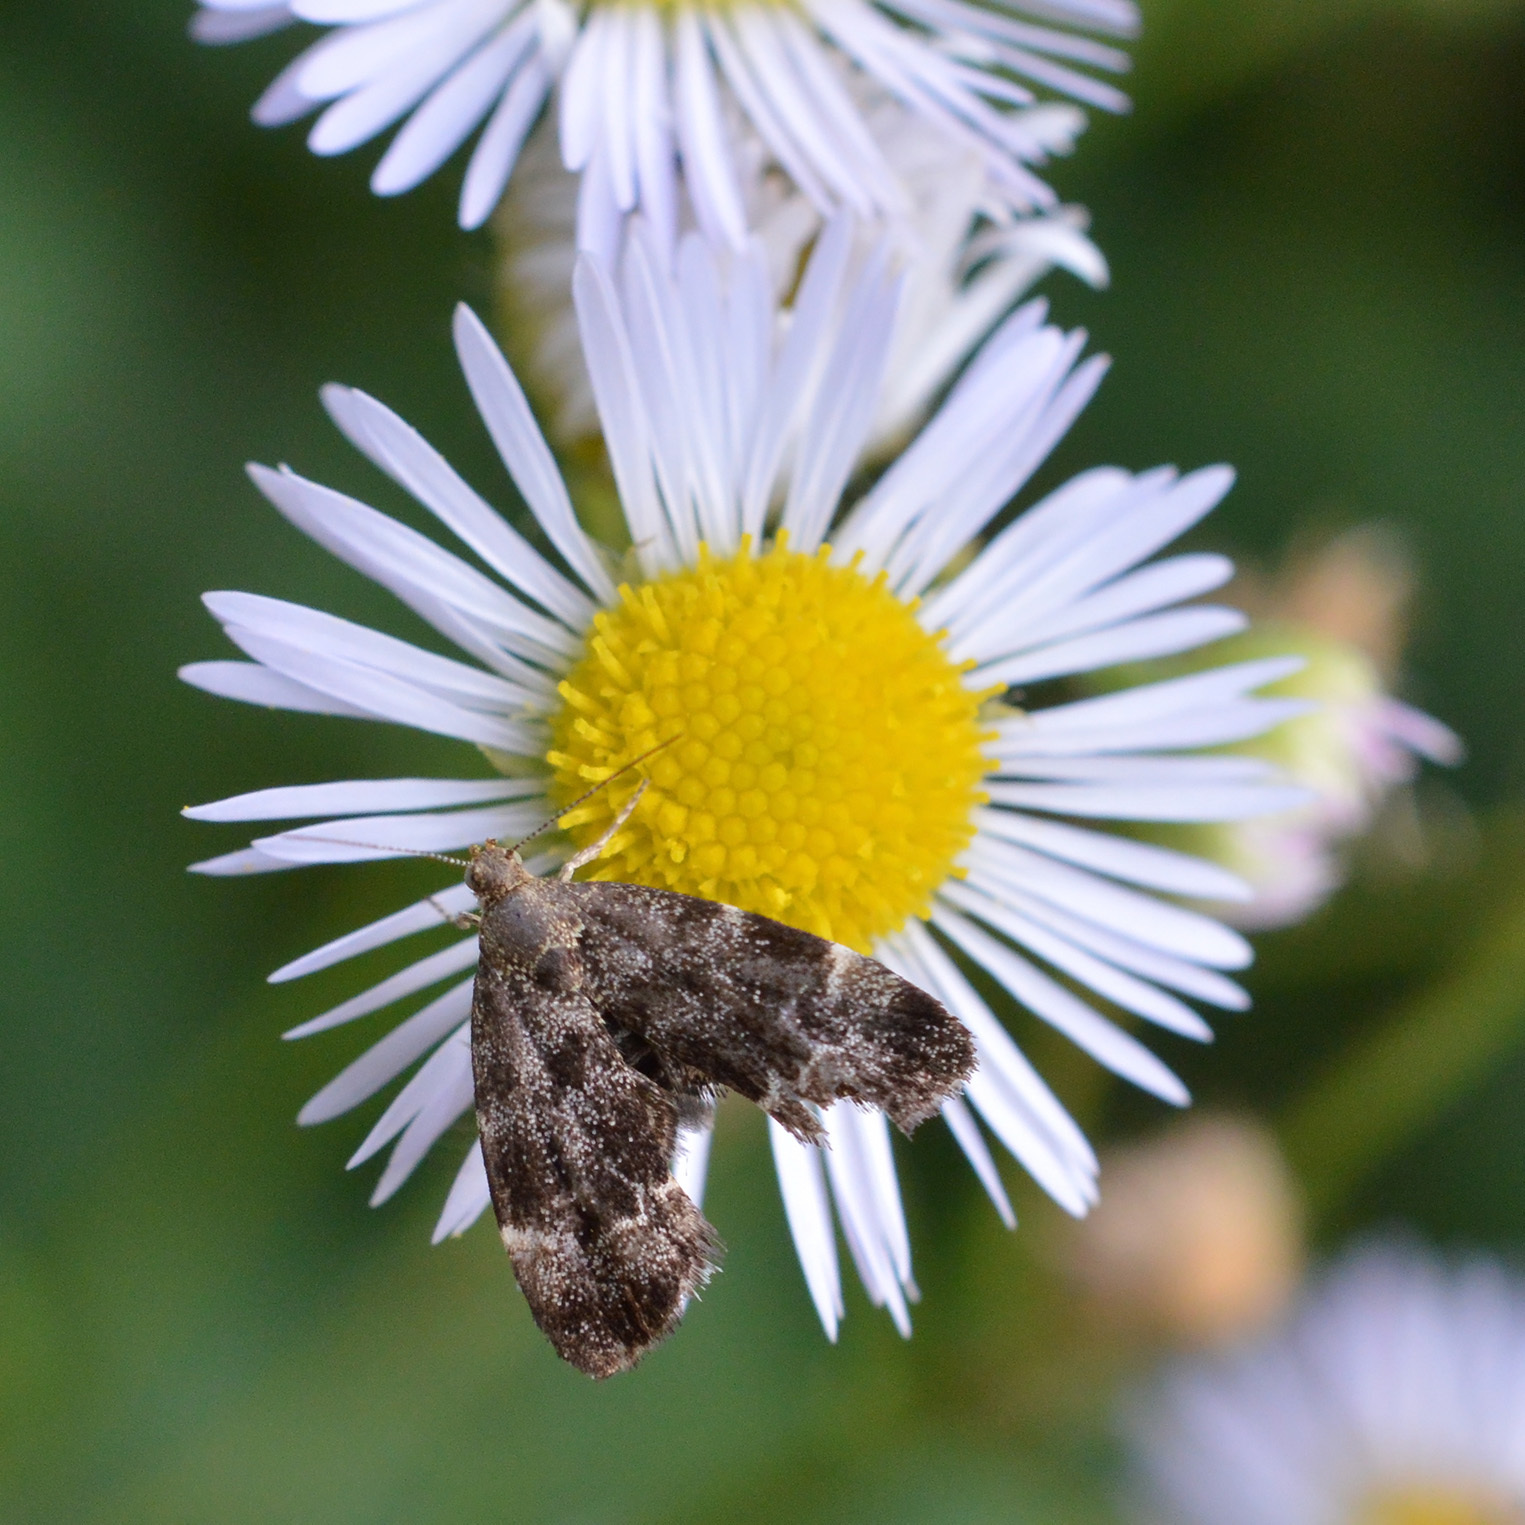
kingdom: Animalia
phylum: Arthropoda
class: Insecta
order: Lepidoptera
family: Choreutidae
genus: Anthophila
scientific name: Anthophila fabriciana
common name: Nettle-tap
